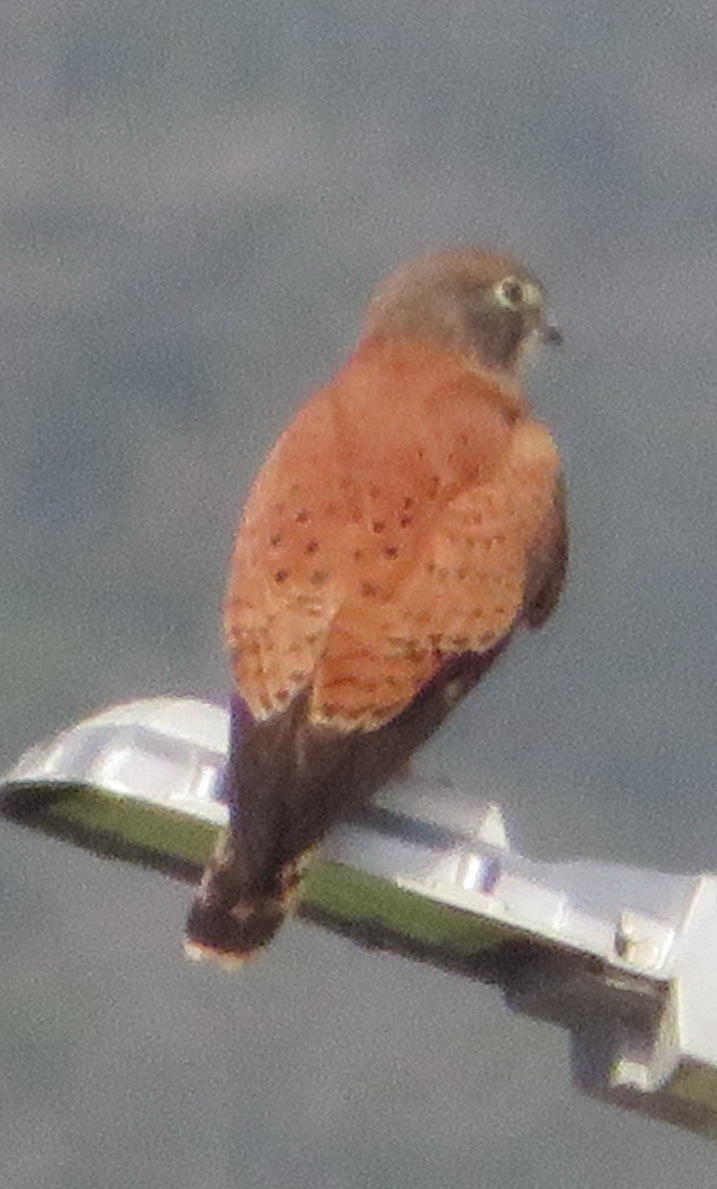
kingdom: Animalia
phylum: Chordata
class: Aves
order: Falconiformes
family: Falconidae
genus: Falco
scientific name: Falco rupicolus
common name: Rock kestrel
